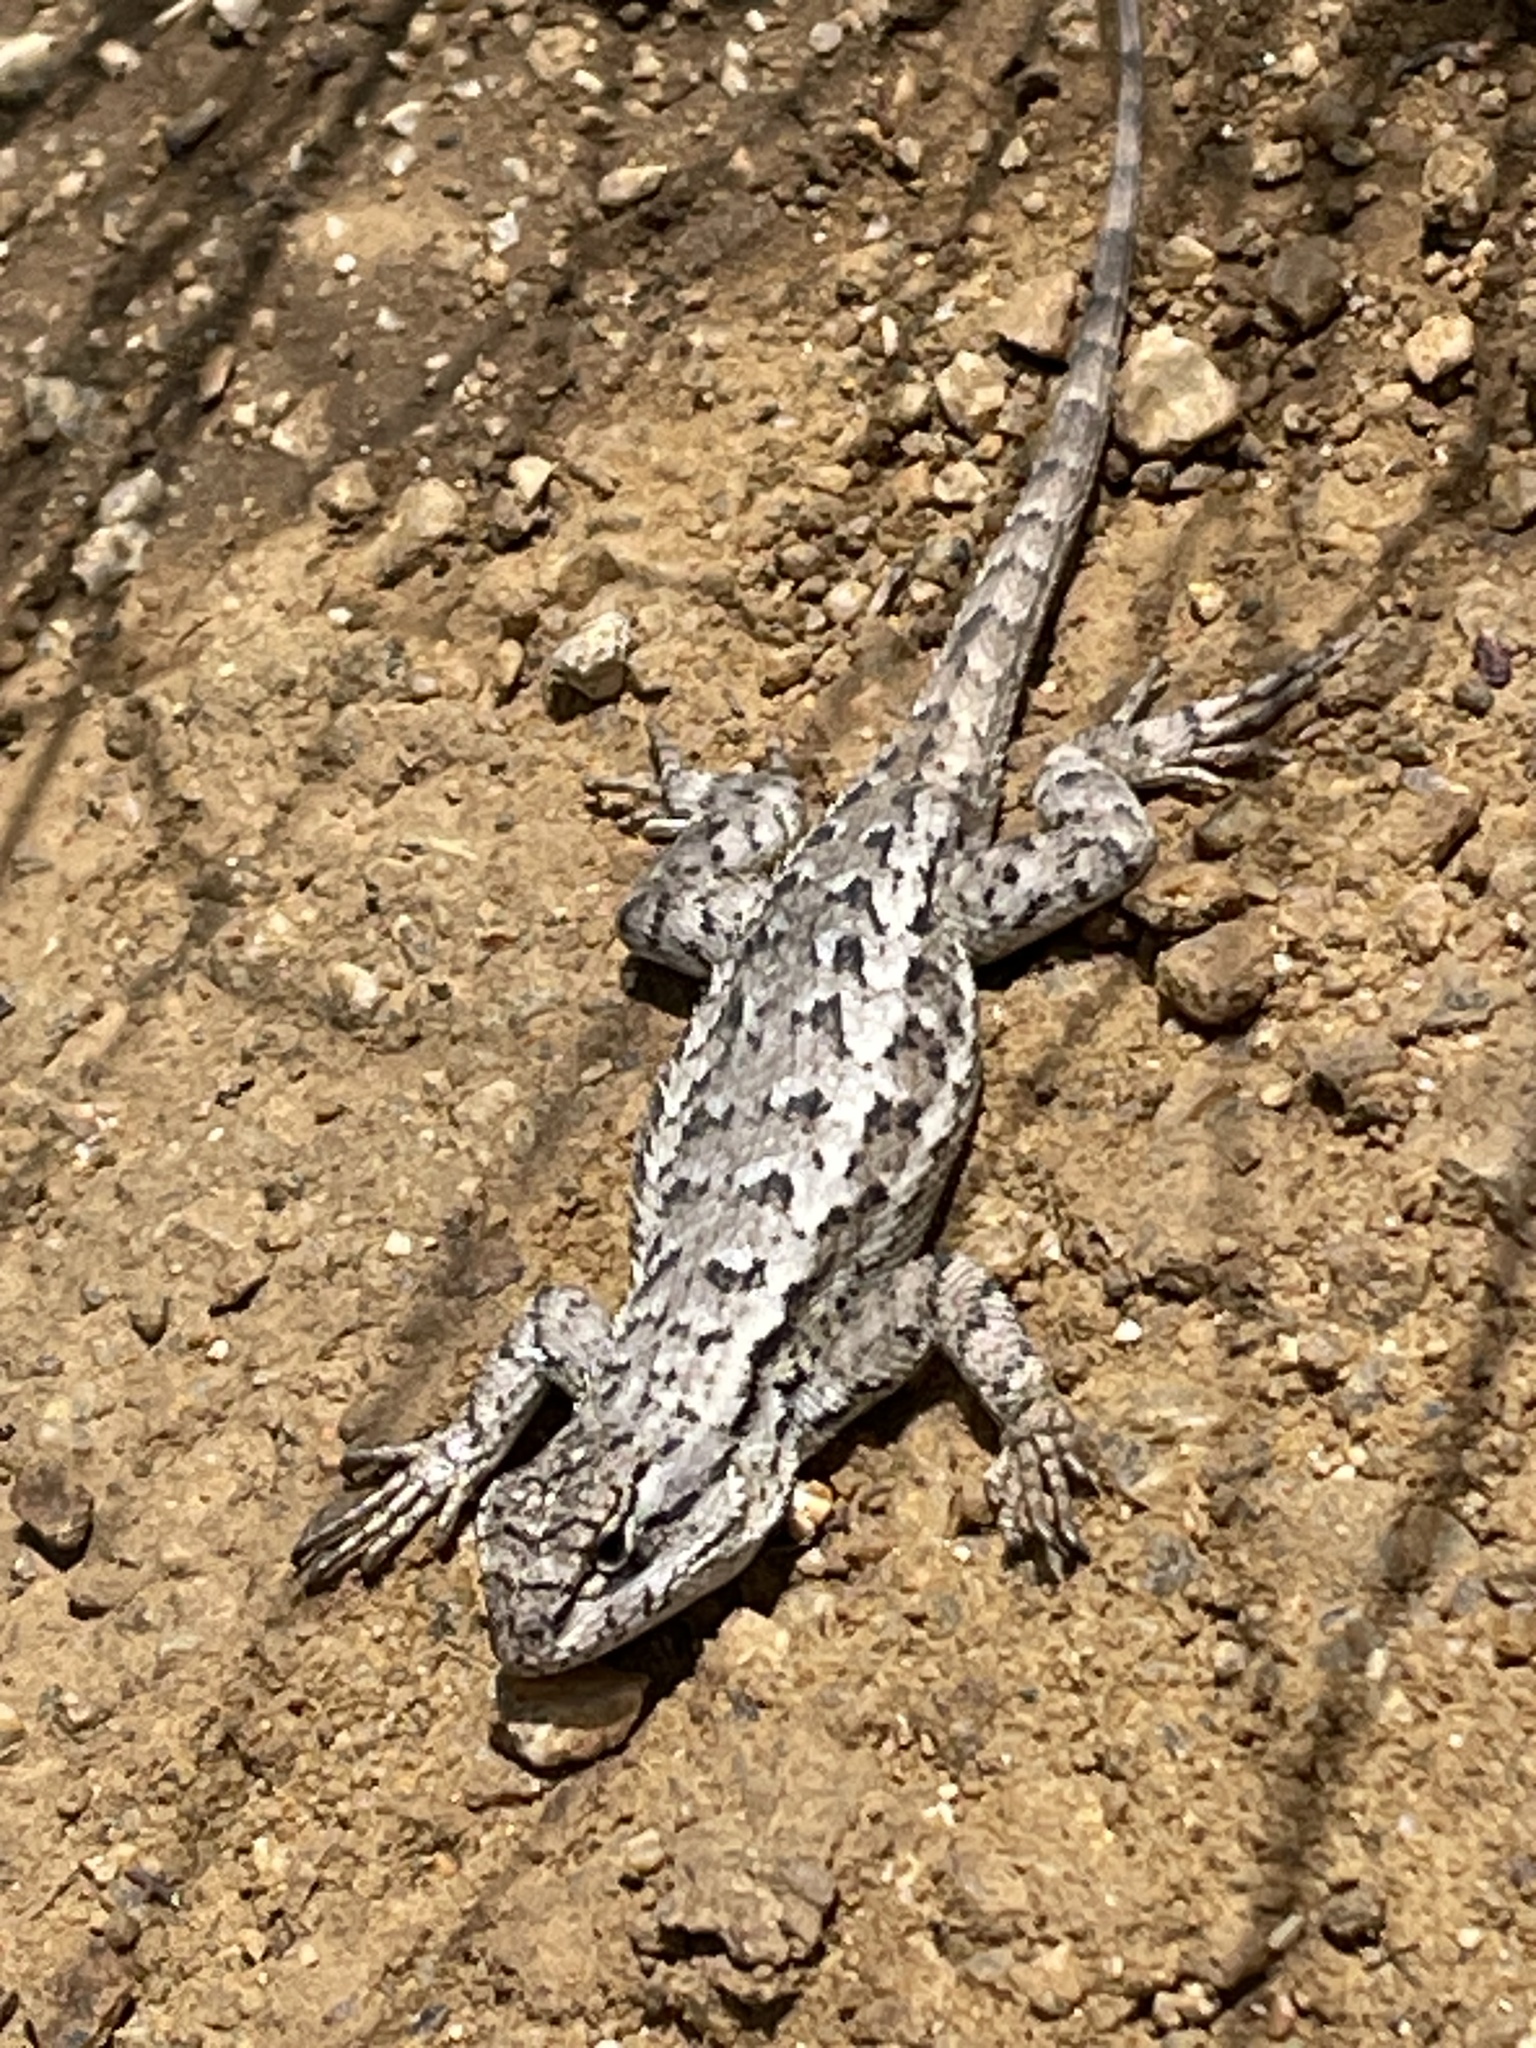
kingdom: Animalia
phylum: Chordata
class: Squamata
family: Phrynosomatidae
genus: Sceloporus
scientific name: Sceloporus occidentalis
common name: Western fence lizard
